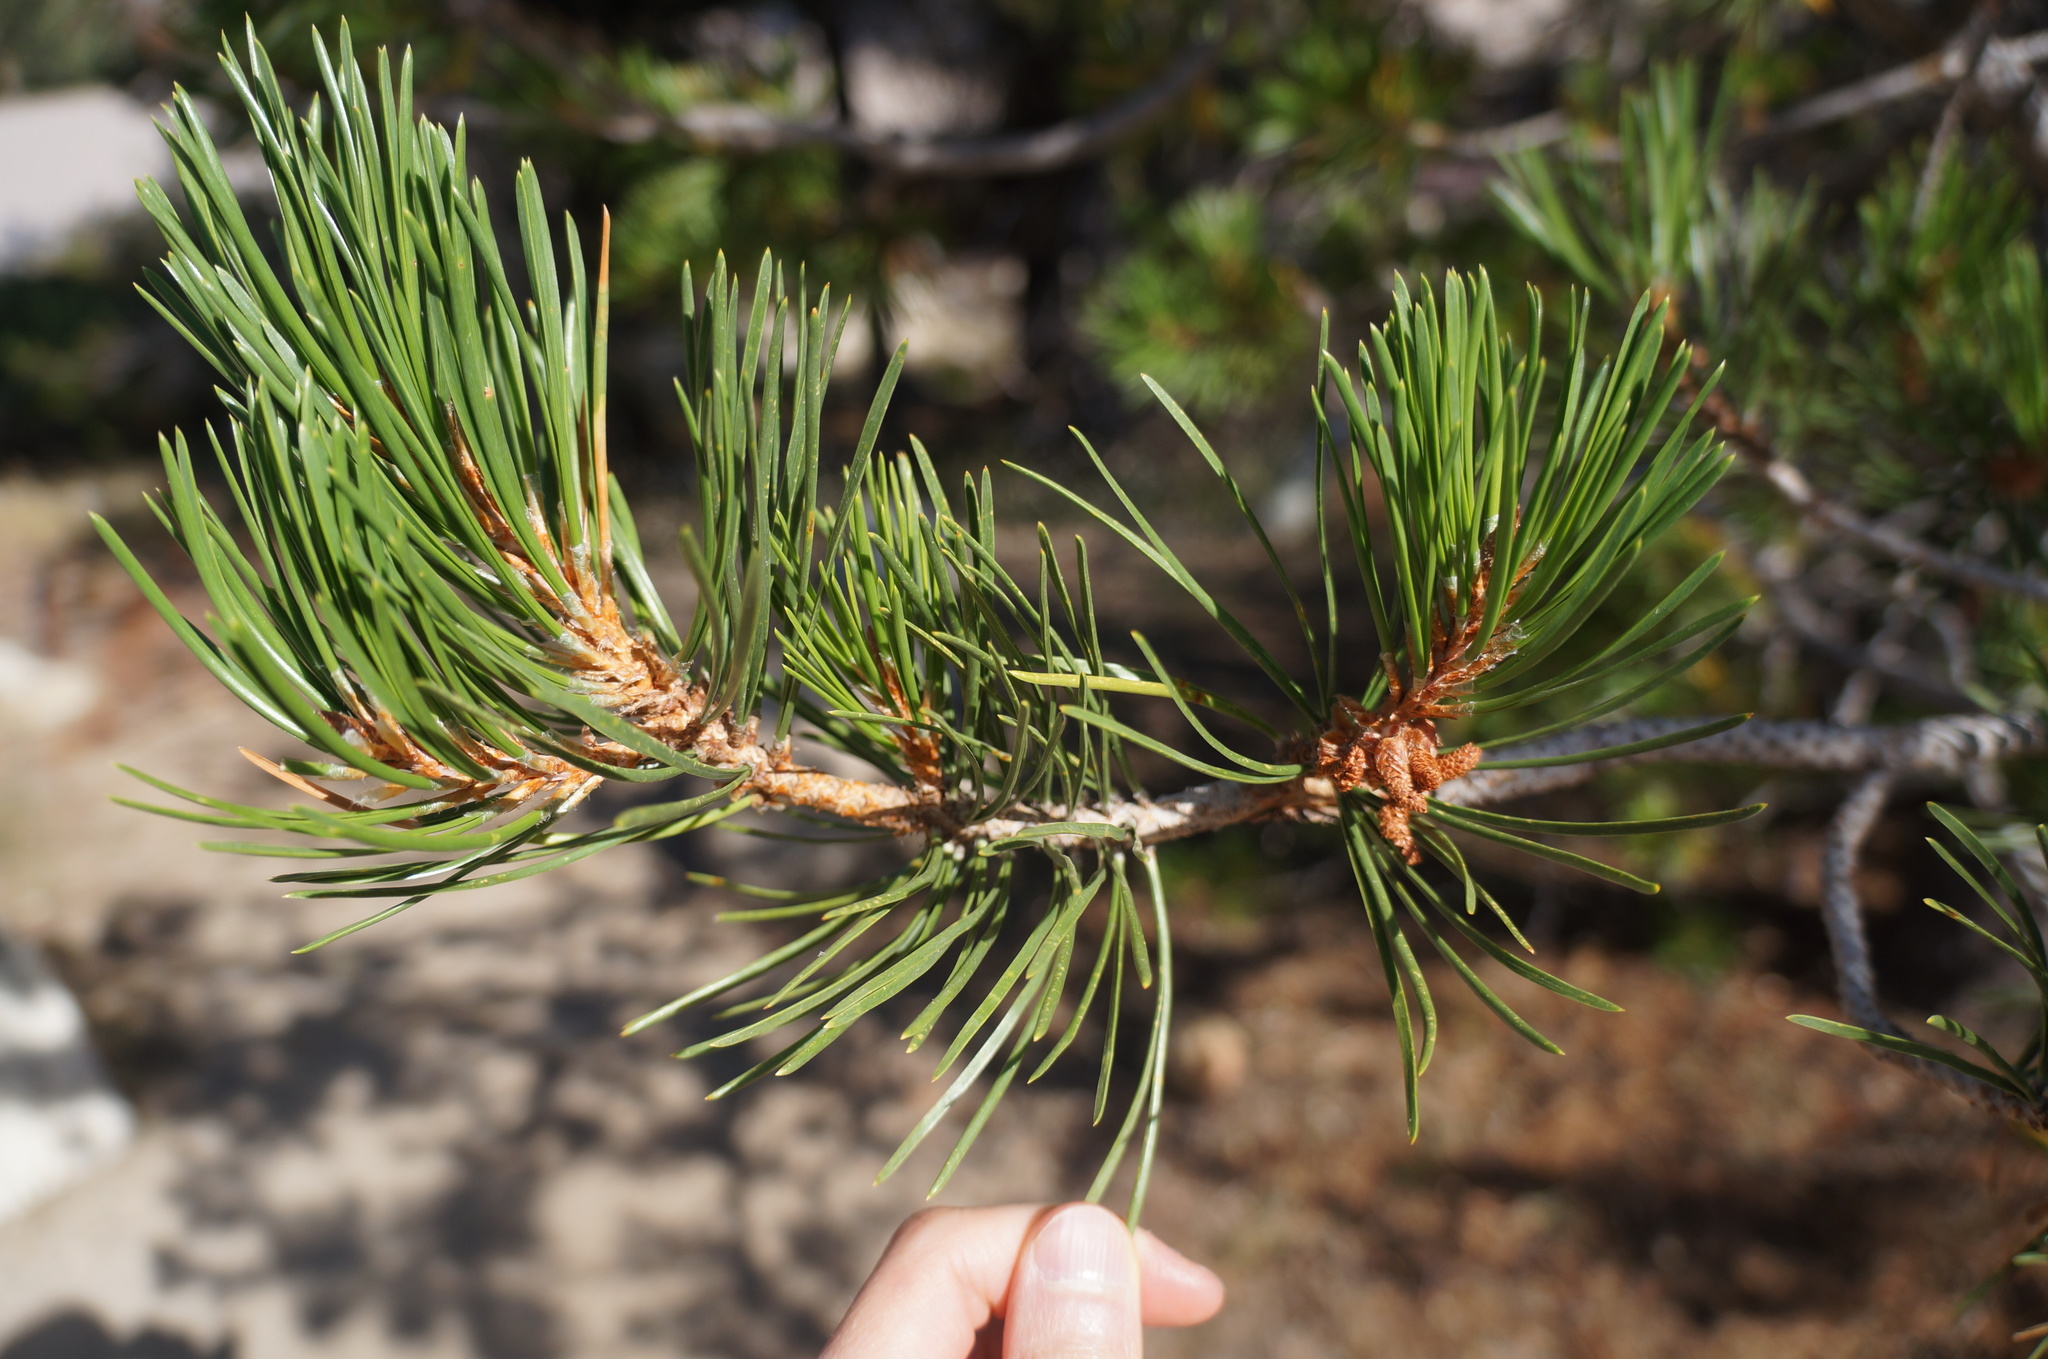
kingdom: Plantae
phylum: Tracheophyta
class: Pinopsida
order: Pinales
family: Pinaceae
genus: Pinus
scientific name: Pinus contorta
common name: Lodgepole pine
